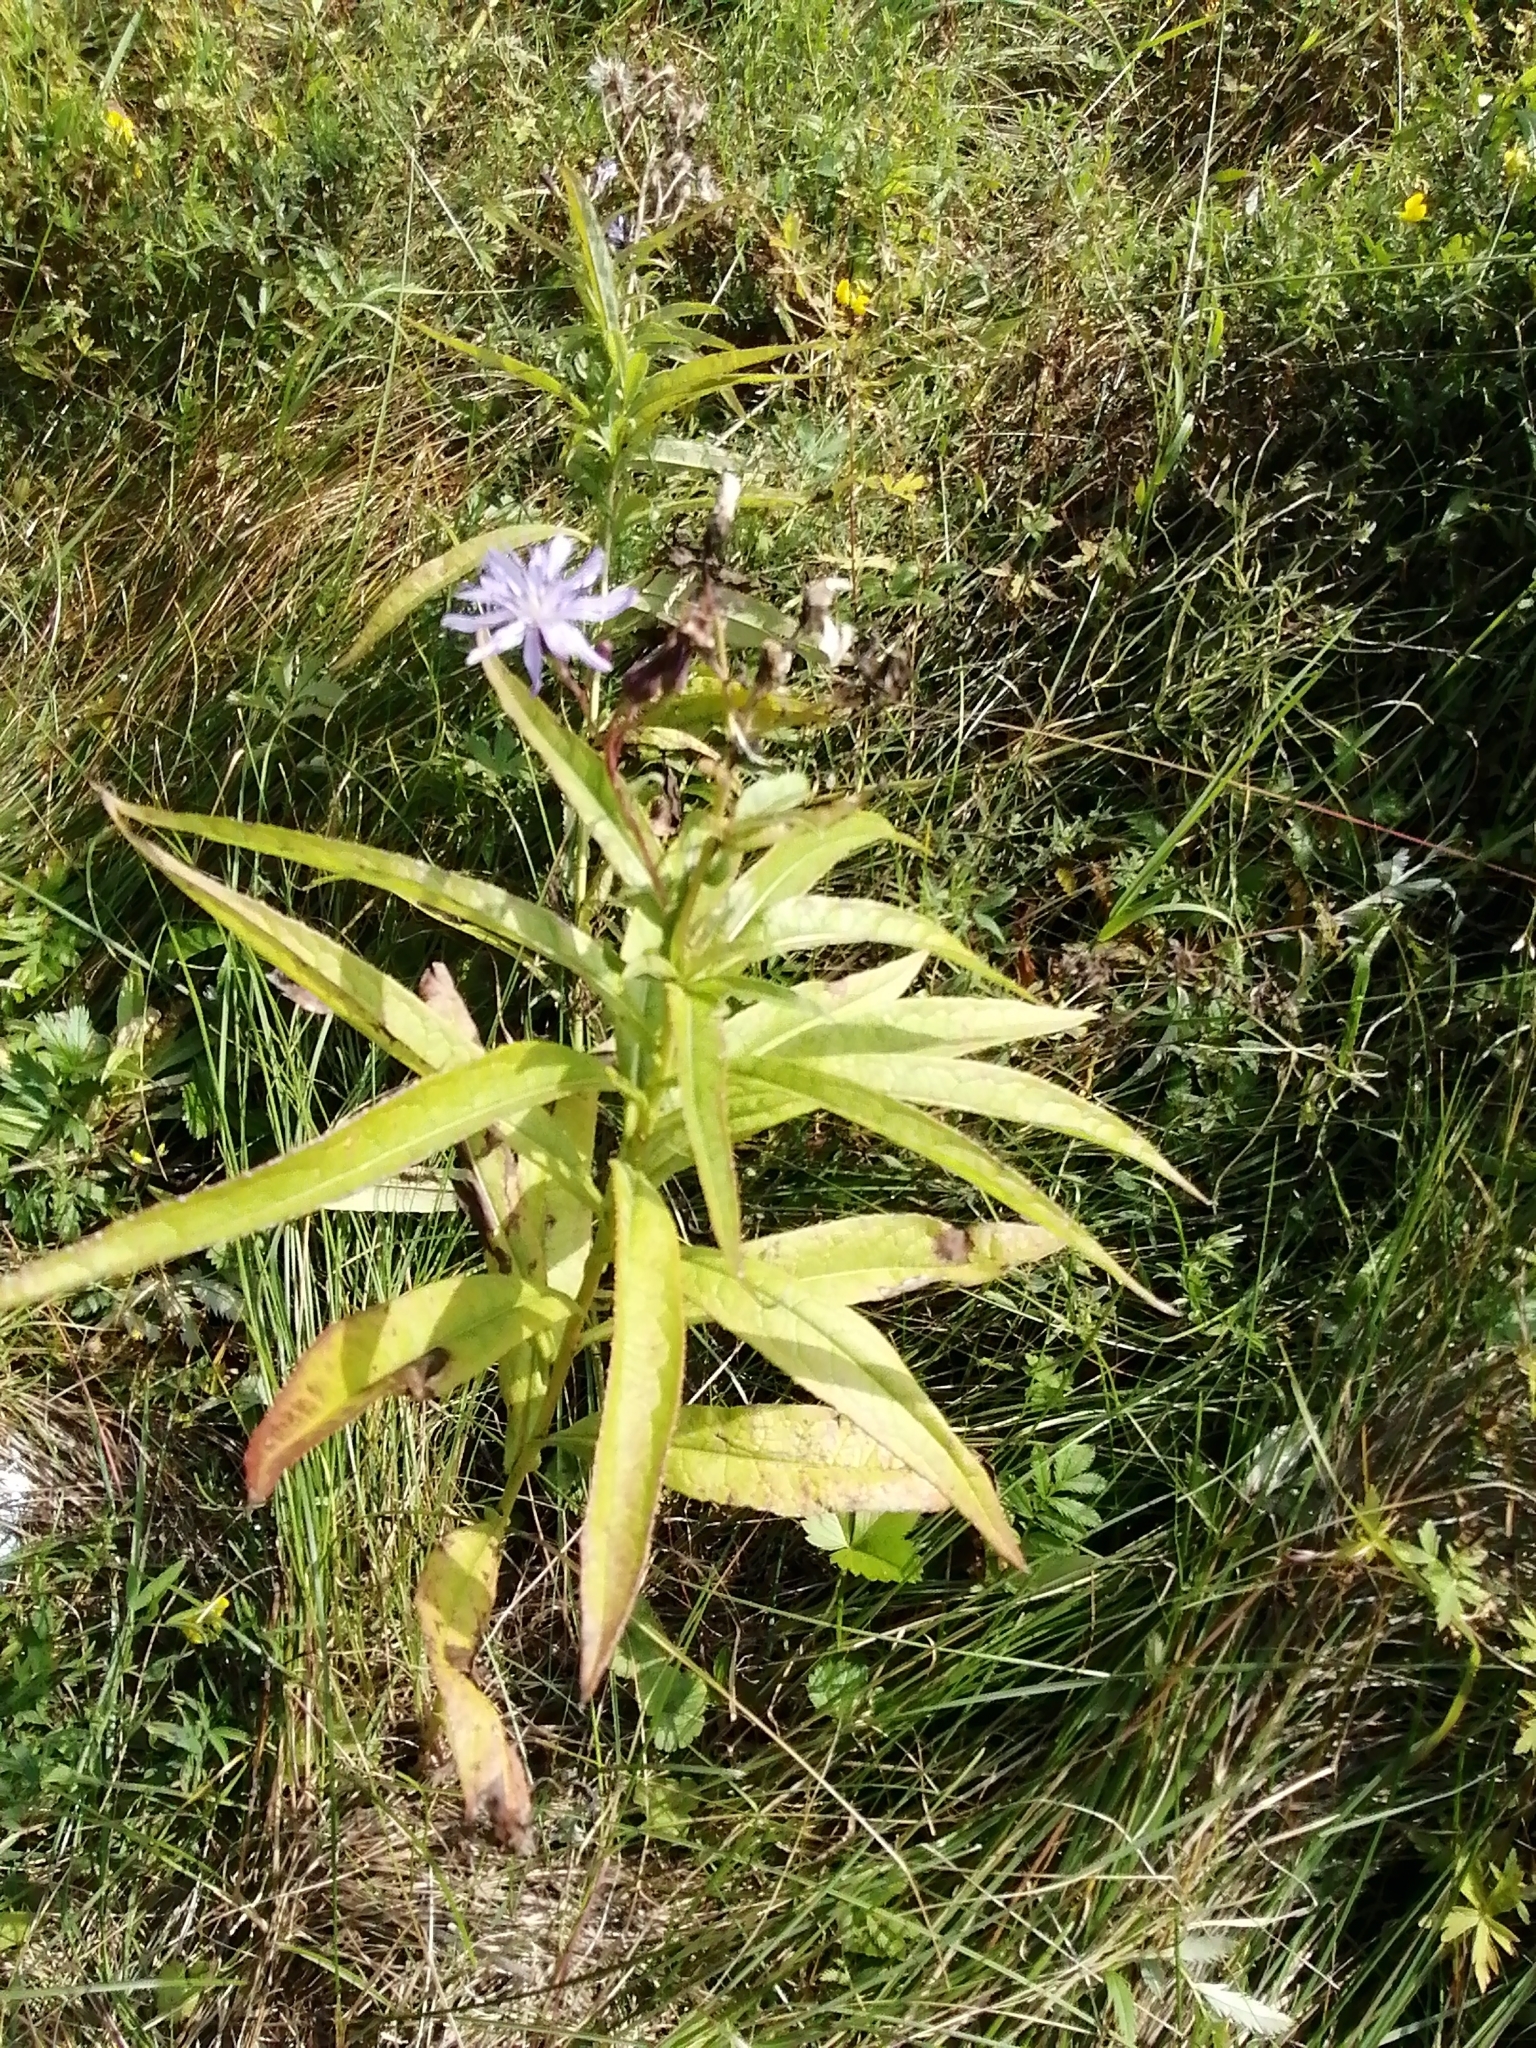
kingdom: Plantae
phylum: Tracheophyta
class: Magnoliopsida
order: Asterales
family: Asteraceae
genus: Lactuca
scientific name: Lactuca sibirica
